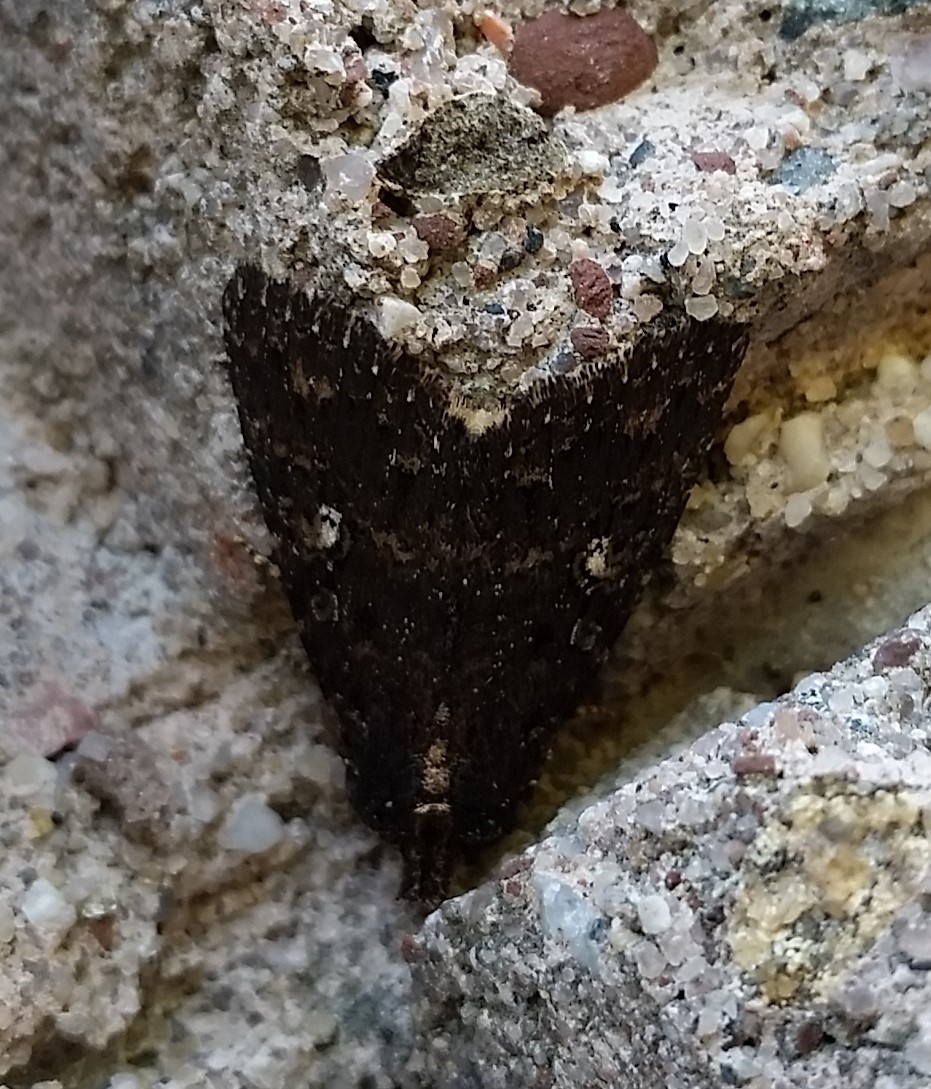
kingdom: Animalia
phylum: Arthropoda
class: Insecta
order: Lepidoptera
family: Noctuidae
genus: Condica
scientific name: Condica vecors
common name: Dusky groundling
